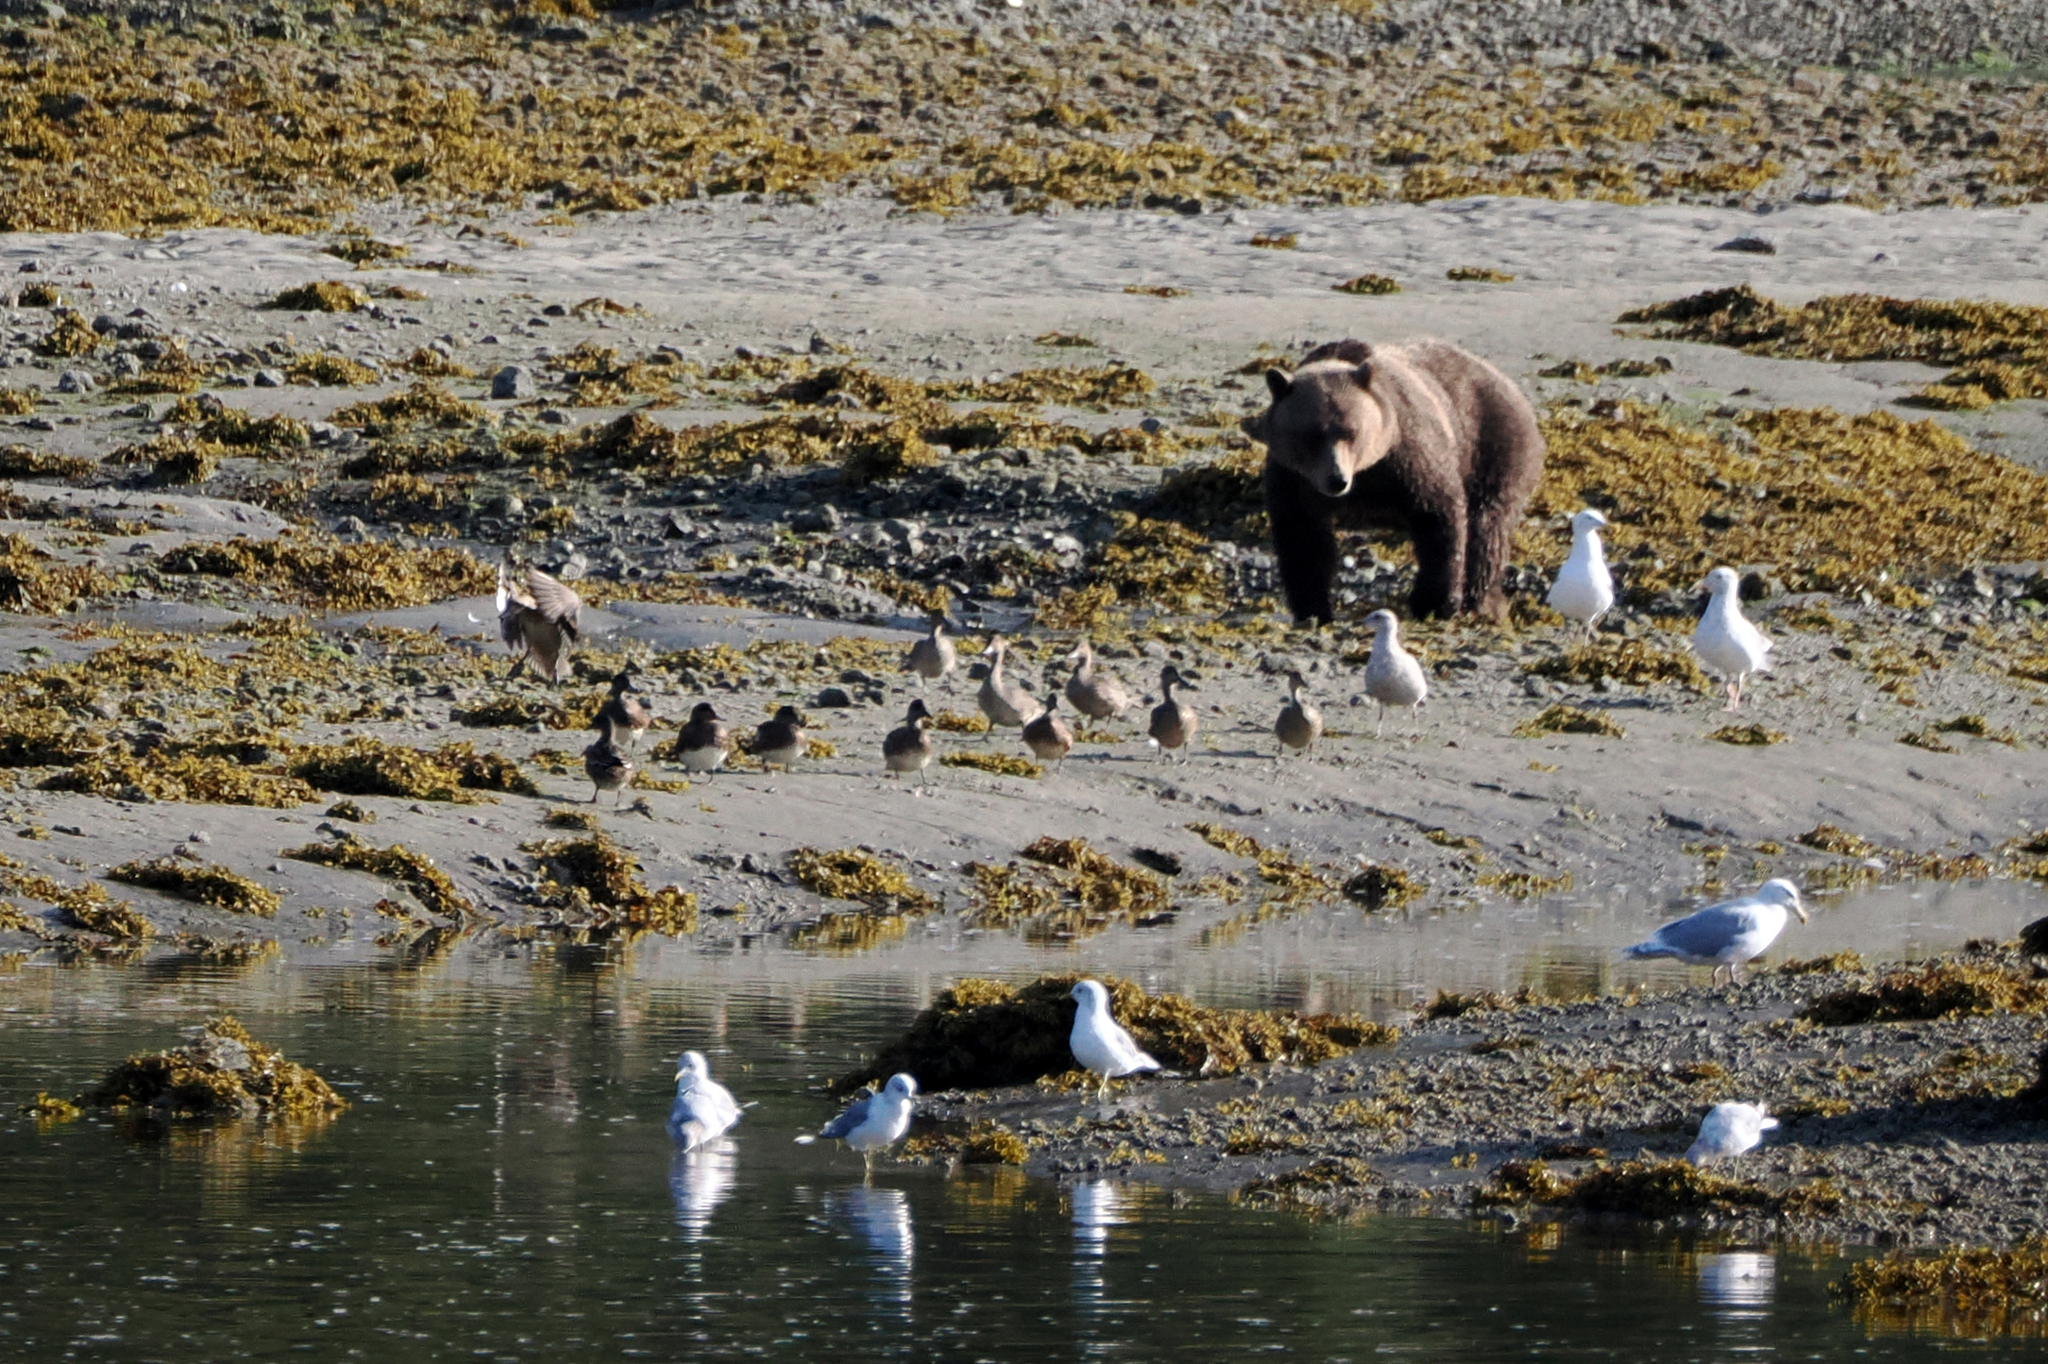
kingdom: Animalia
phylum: Chordata
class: Mammalia
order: Carnivora
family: Ursidae
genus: Ursus
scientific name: Ursus arctos
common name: Brown bear
